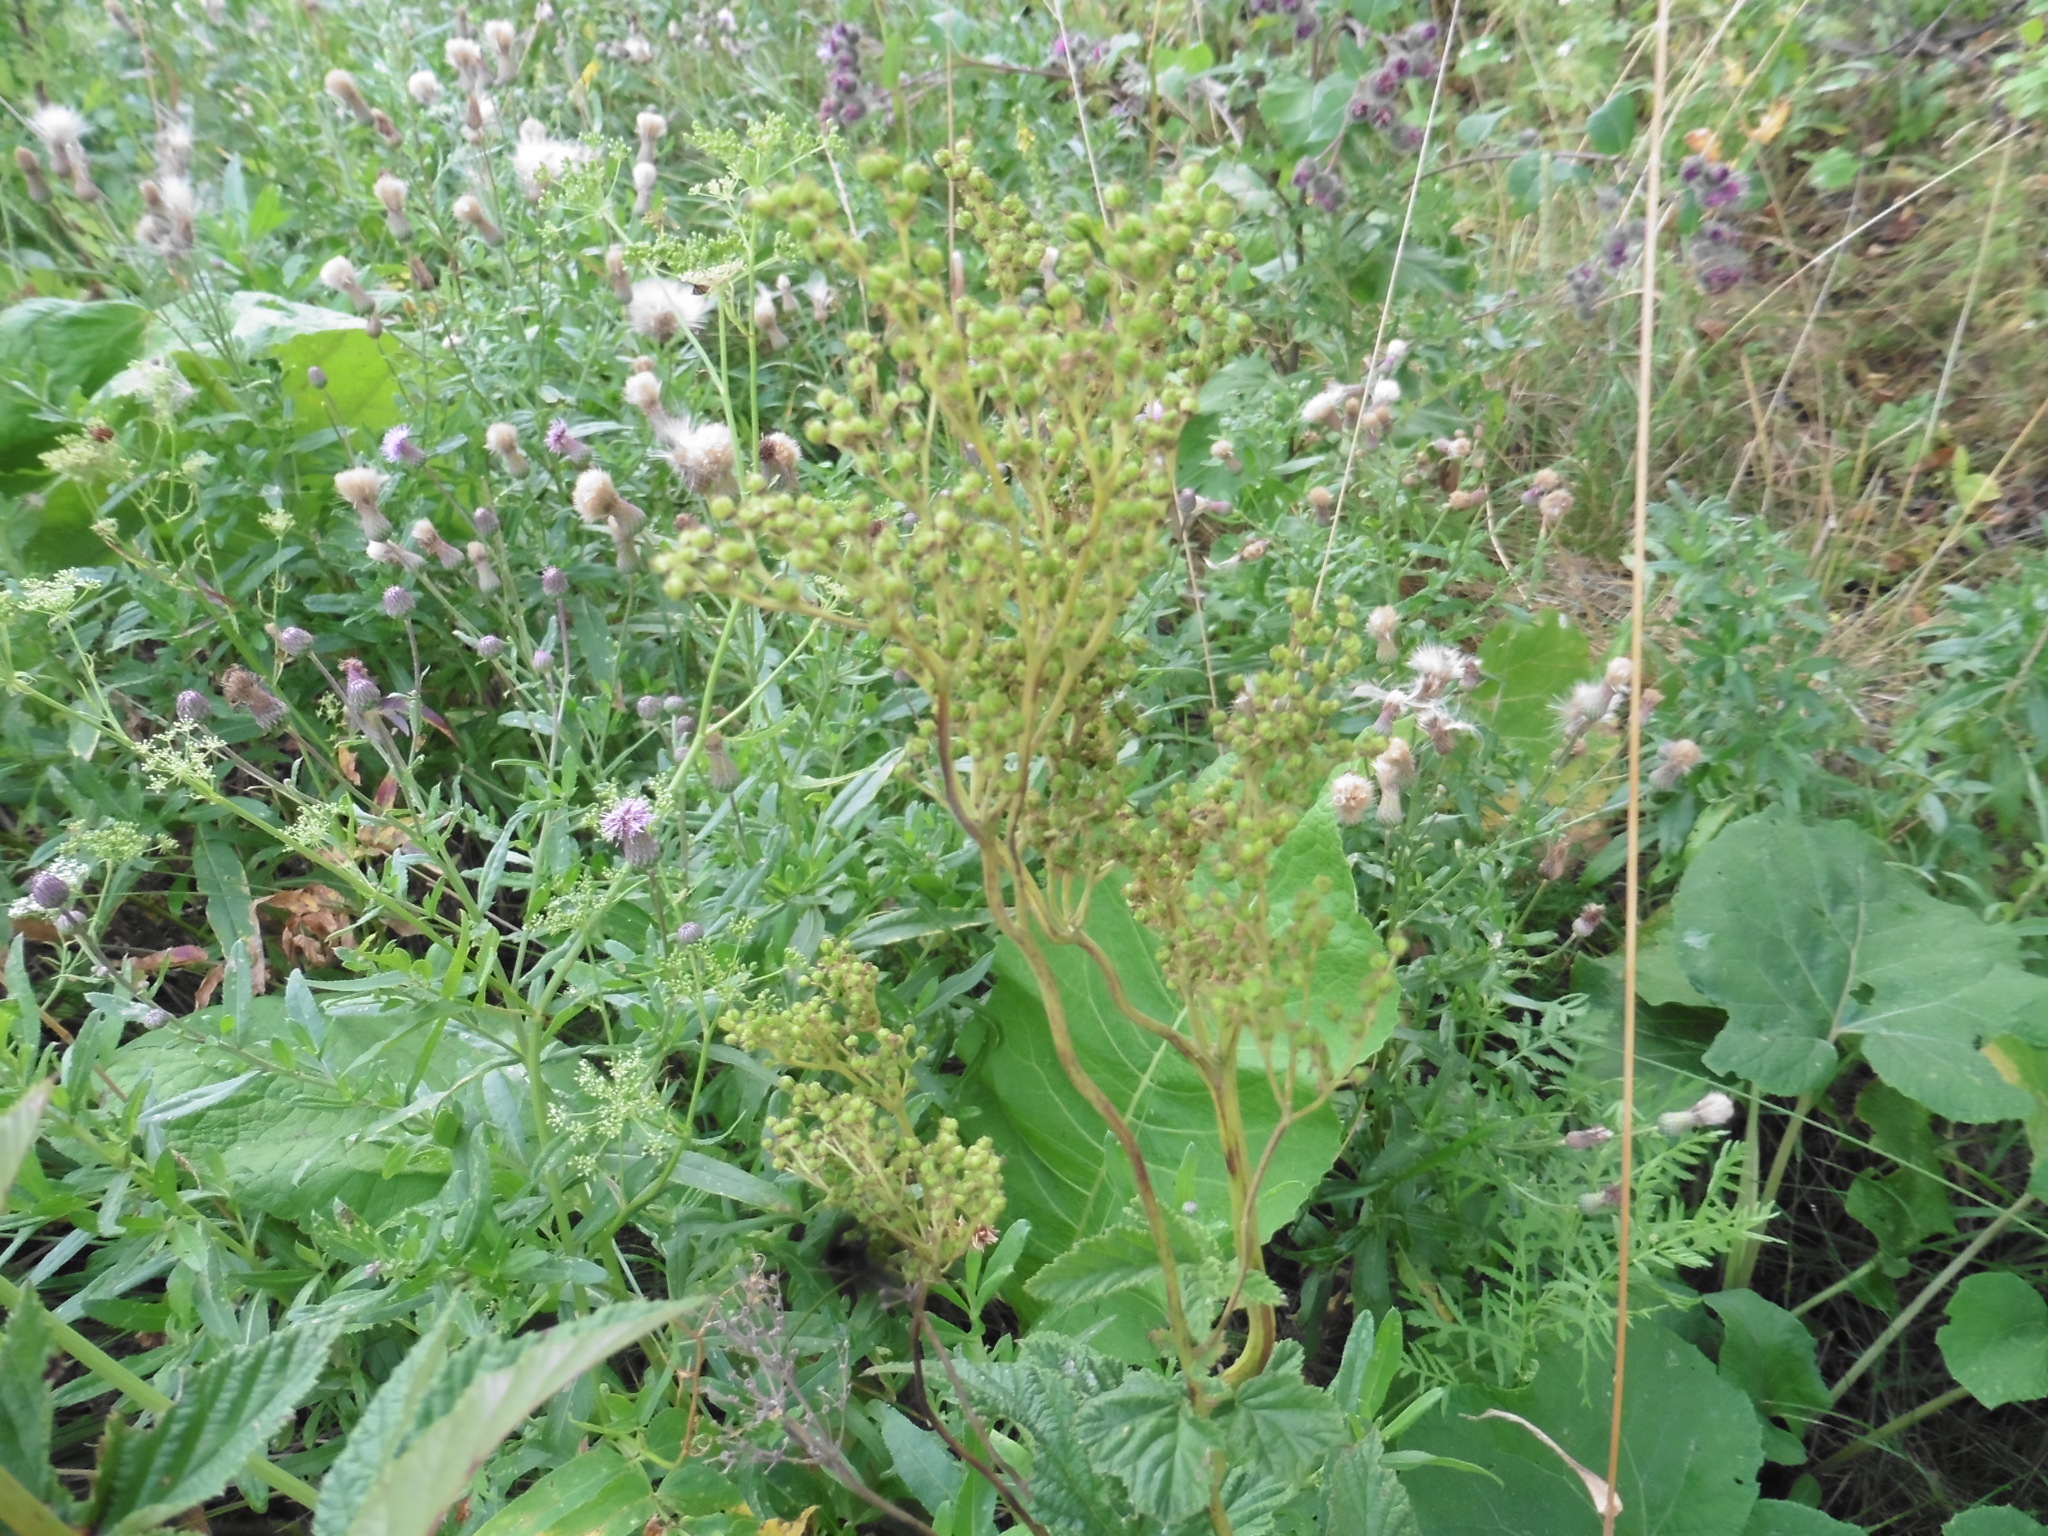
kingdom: Plantae
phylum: Tracheophyta
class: Magnoliopsida
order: Rosales
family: Rosaceae
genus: Filipendula
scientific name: Filipendula ulmaria
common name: Meadowsweet
